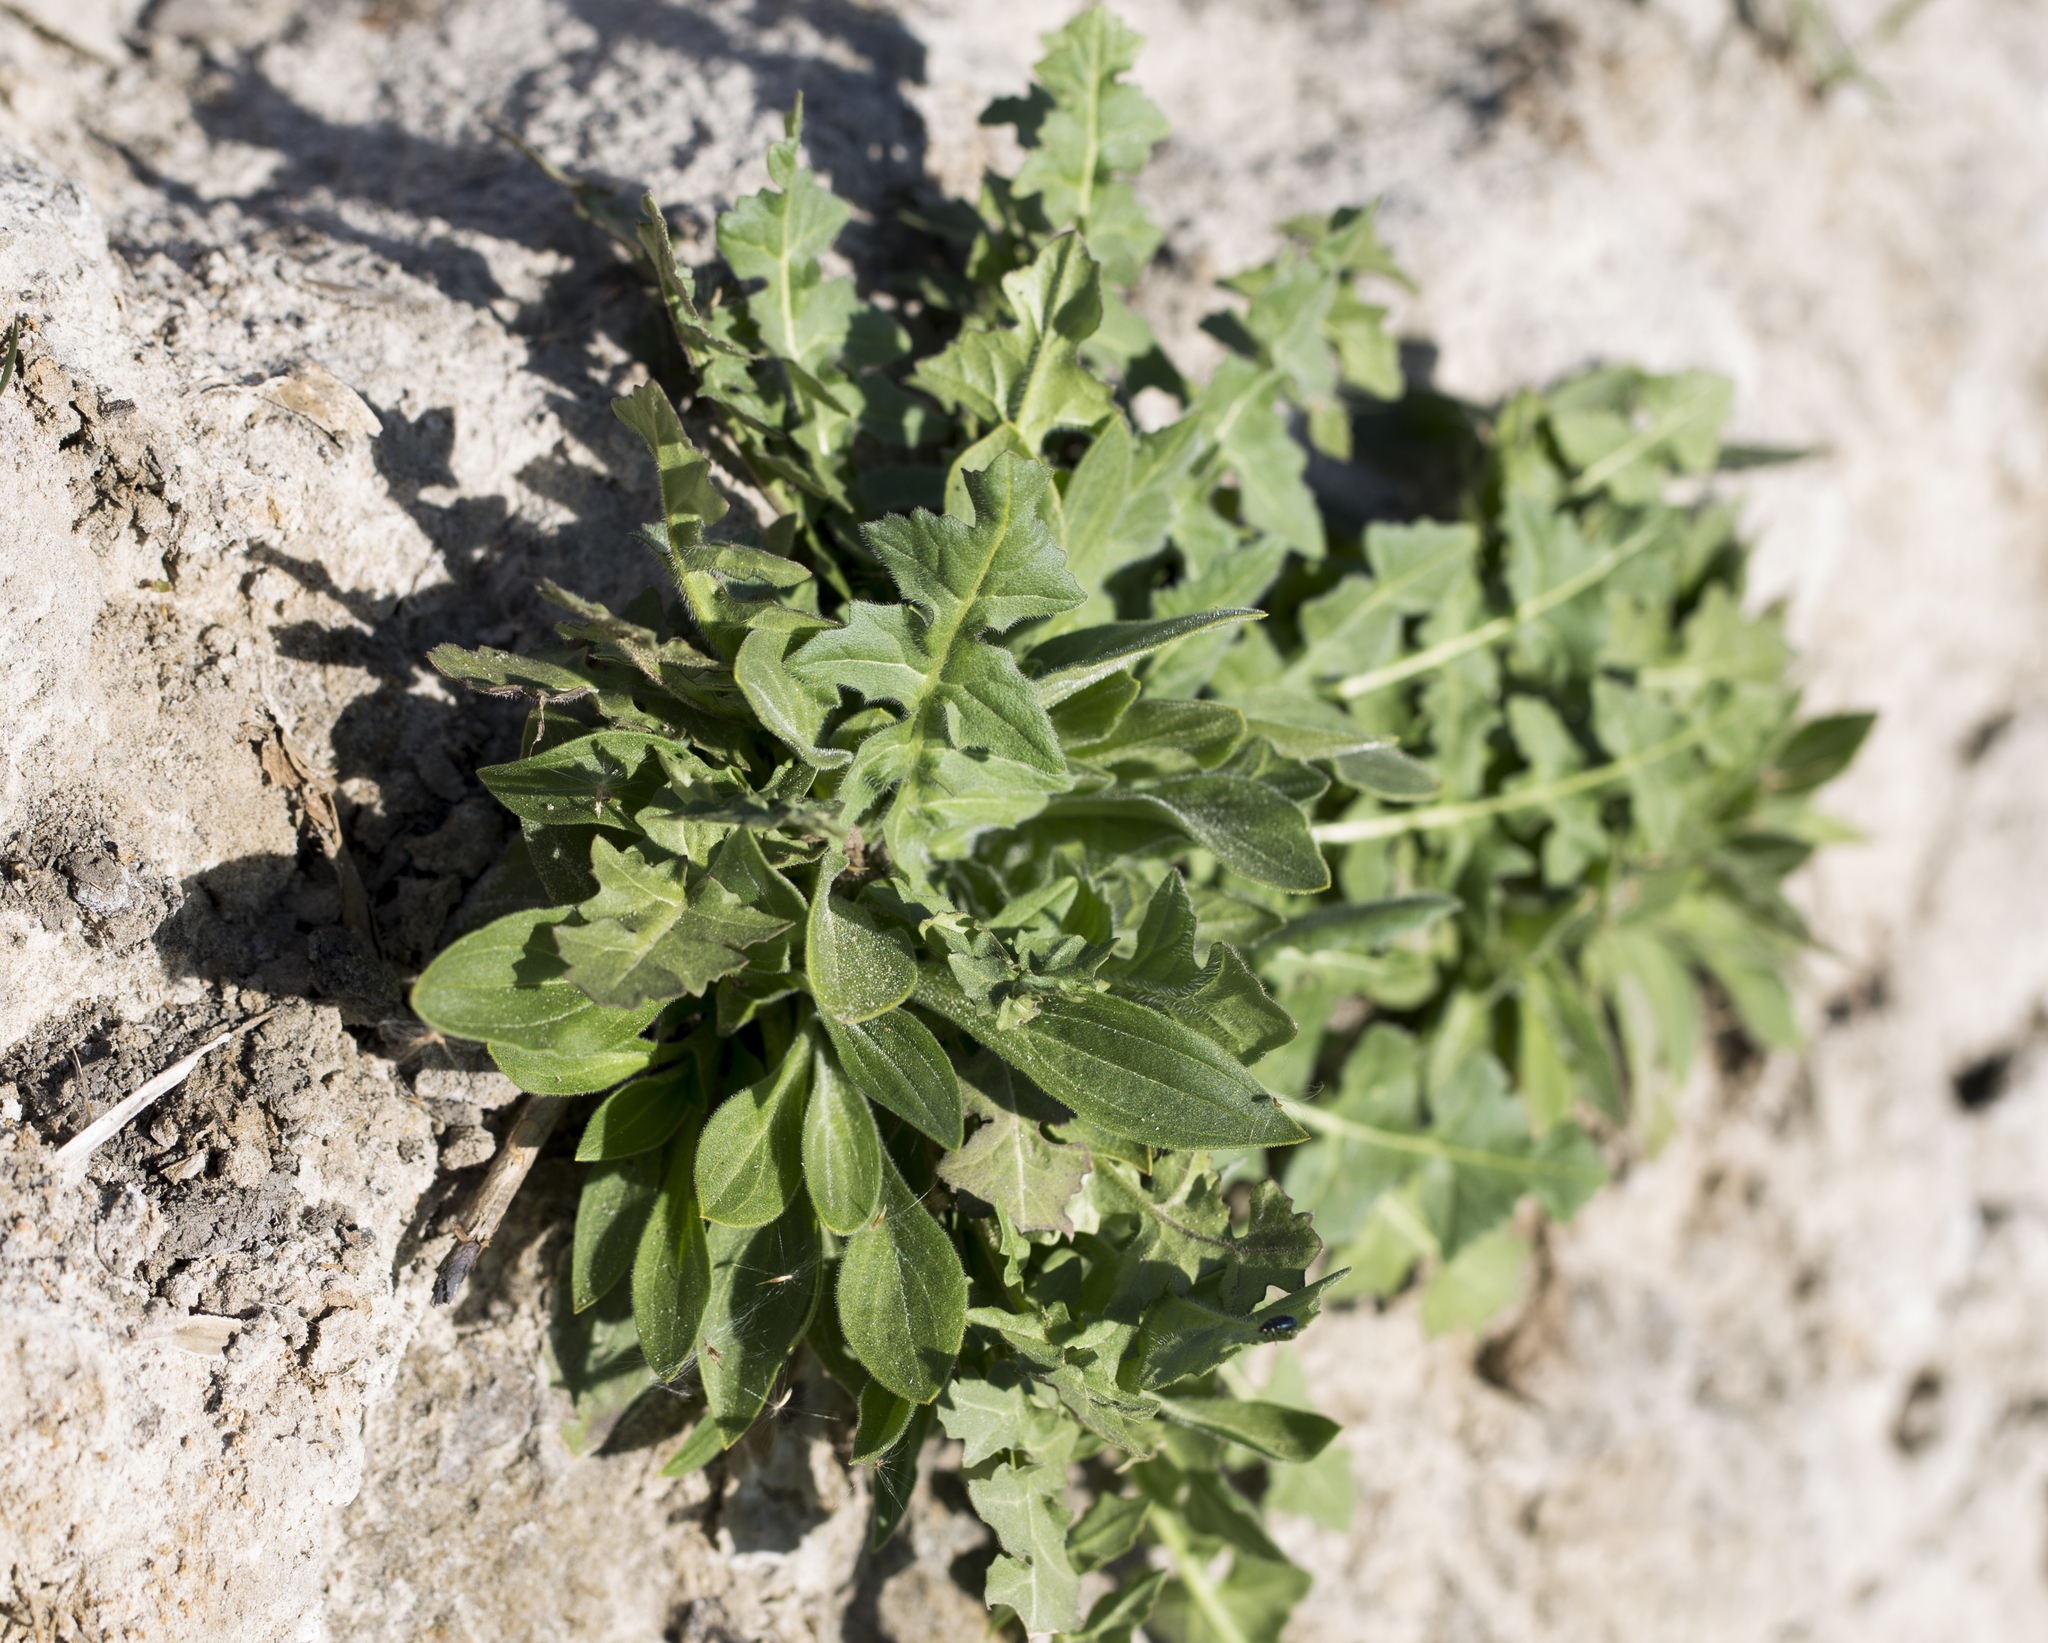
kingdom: Plantae
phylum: Tracheophyta
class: Magnoliopsida
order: Brassicales
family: Brassicaceae
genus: Sisymbrium
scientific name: Sisymbrium loeselii
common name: False london-rocket
